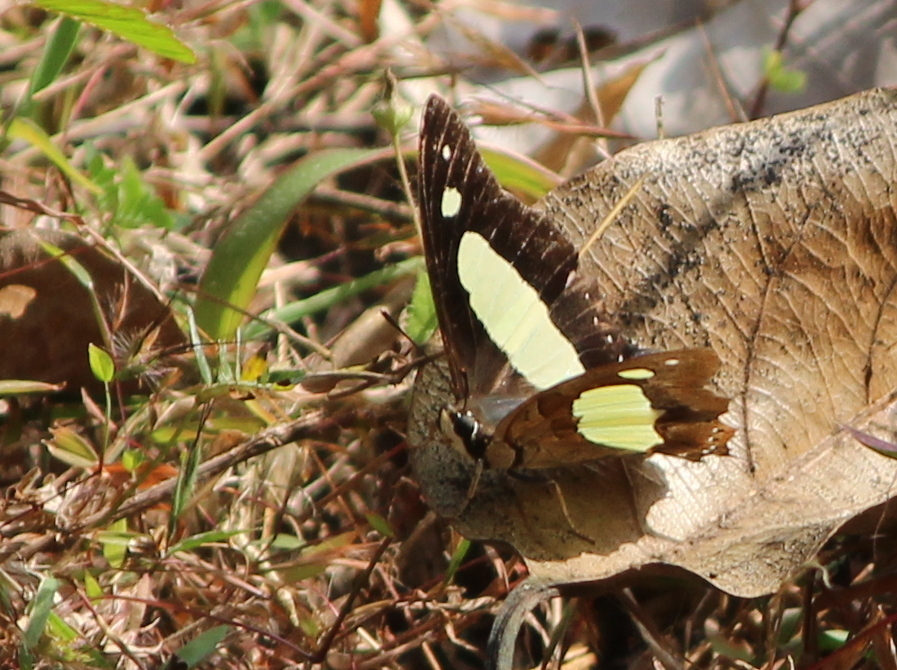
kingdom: Animalia
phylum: Arthropoda
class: Insecta
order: Lepidoptera
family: Nymphalidae
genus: Polyura
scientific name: Polyura
